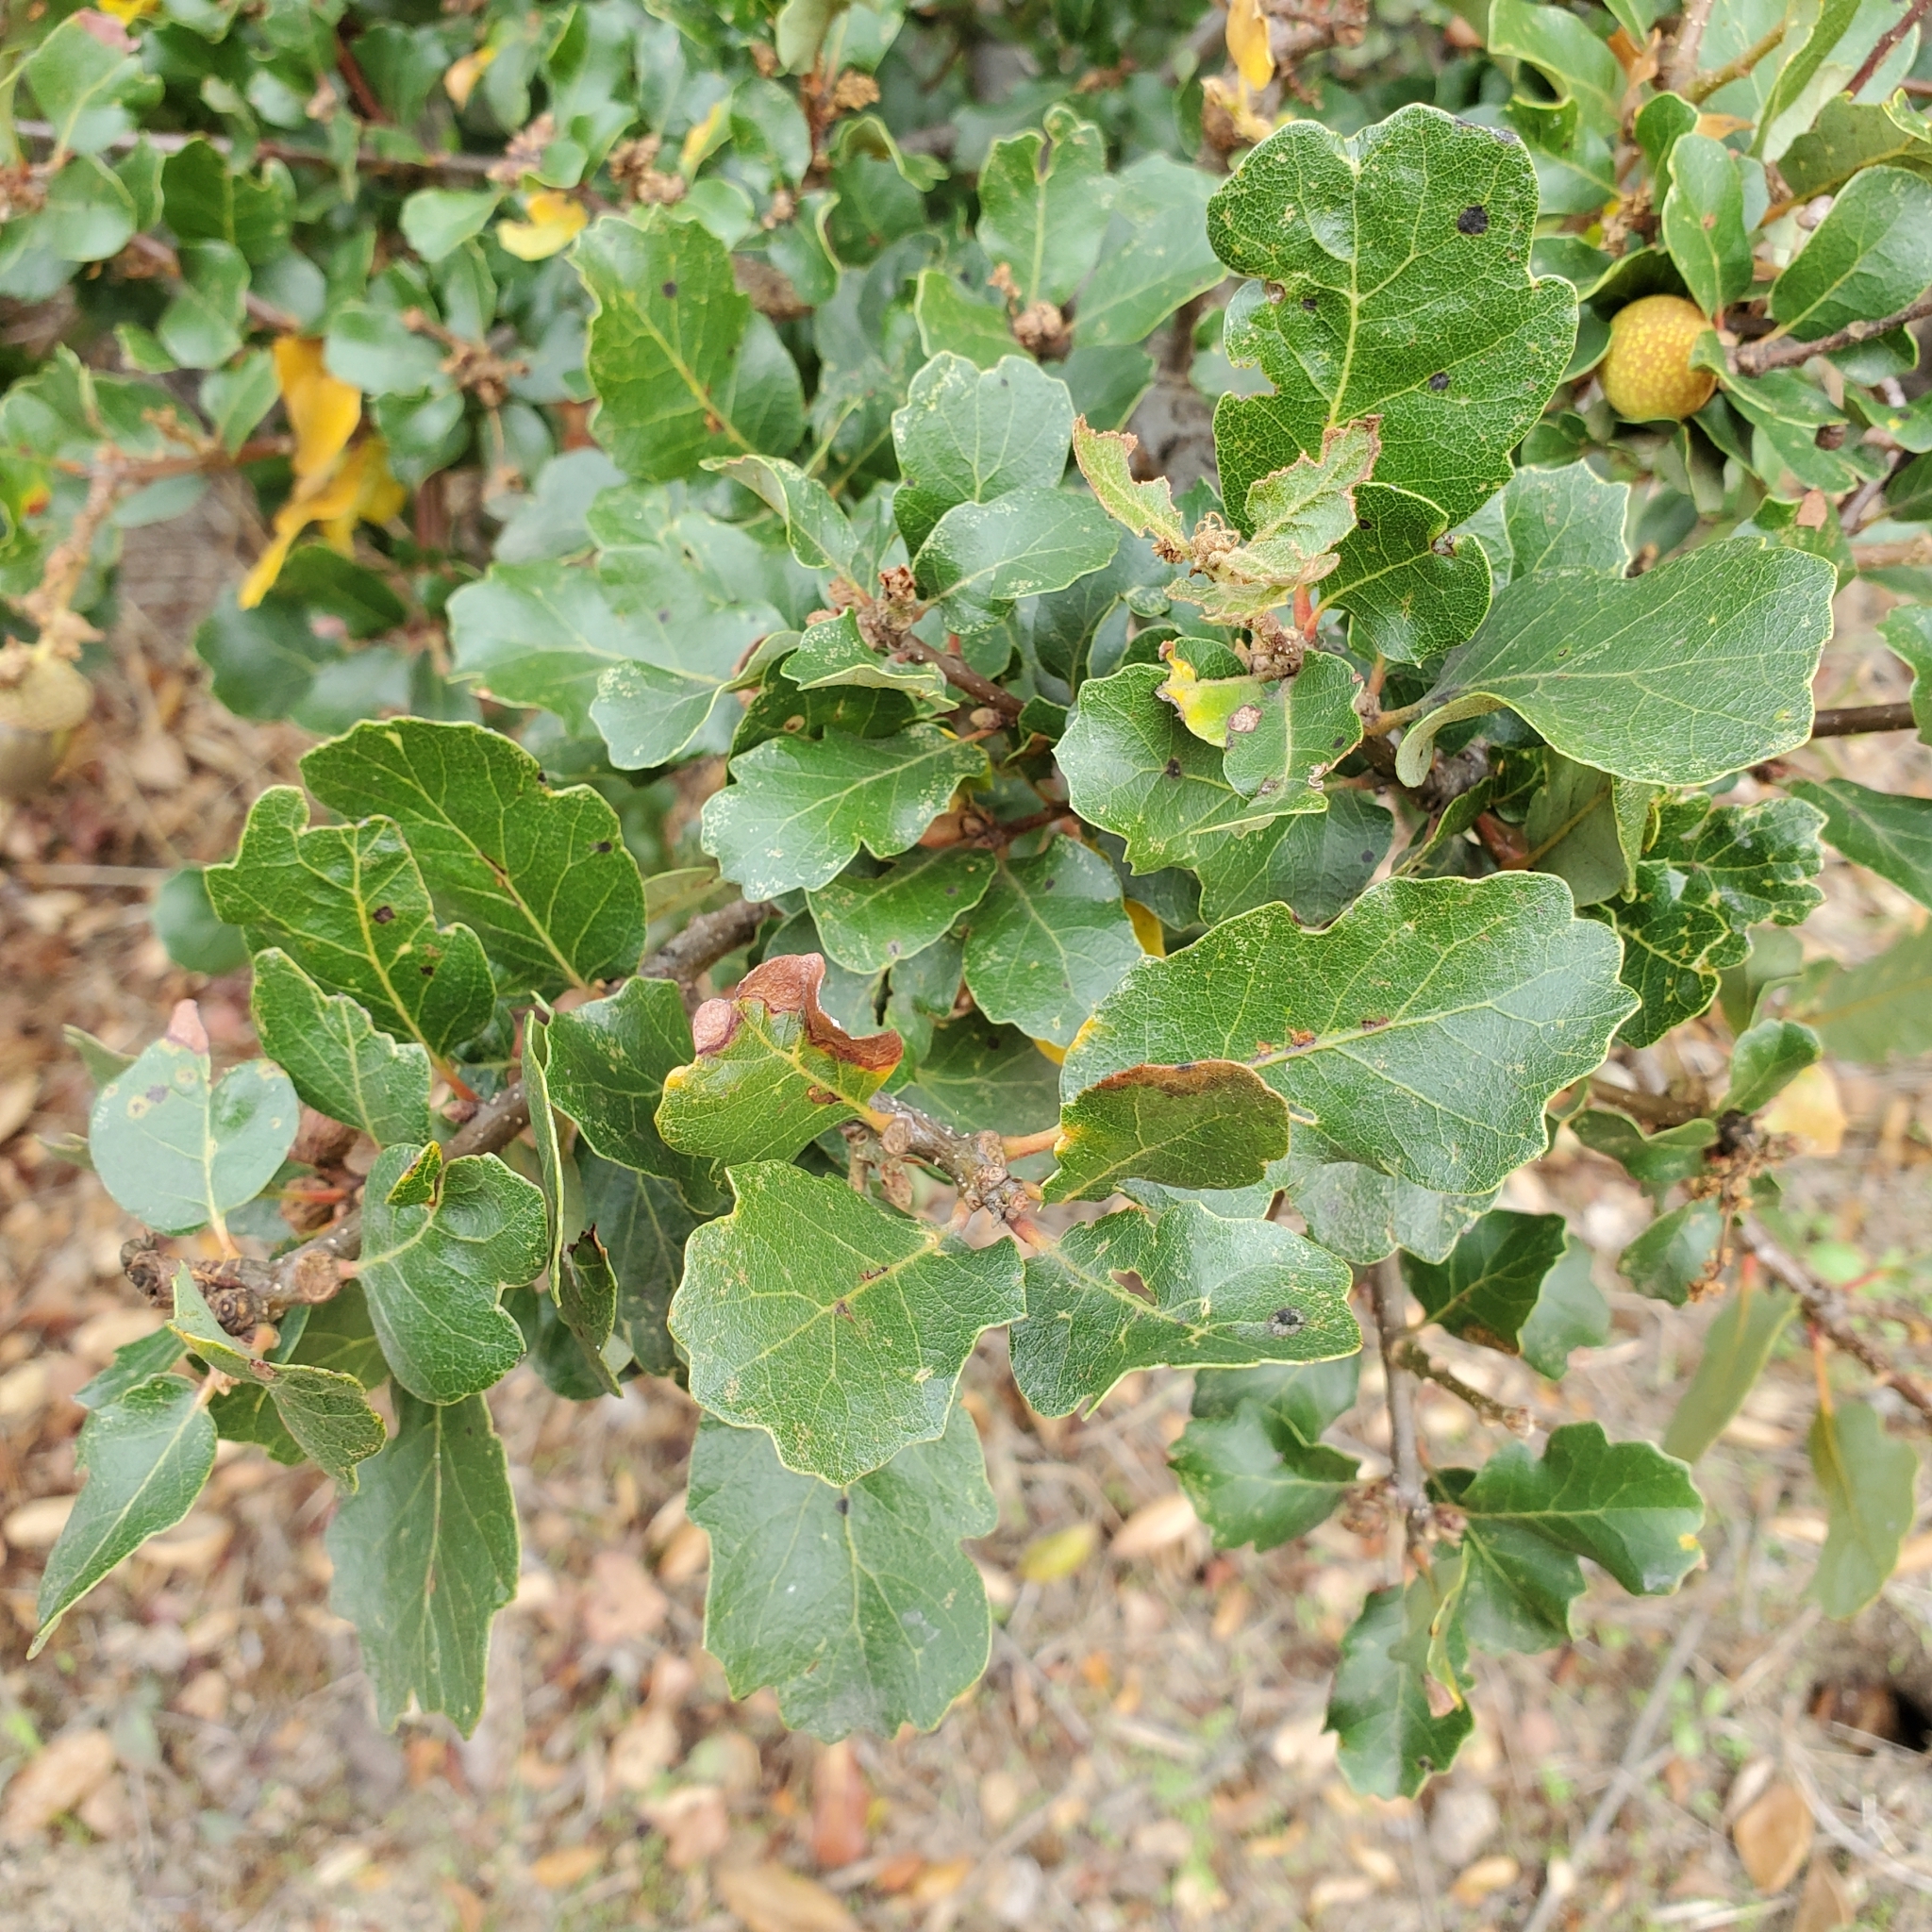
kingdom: Plantae
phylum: Tracheophyta
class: Magnoliopsida
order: Fagales
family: Fagaceae
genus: Quercus
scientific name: Quercus berberidifolia
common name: California scrub oak
